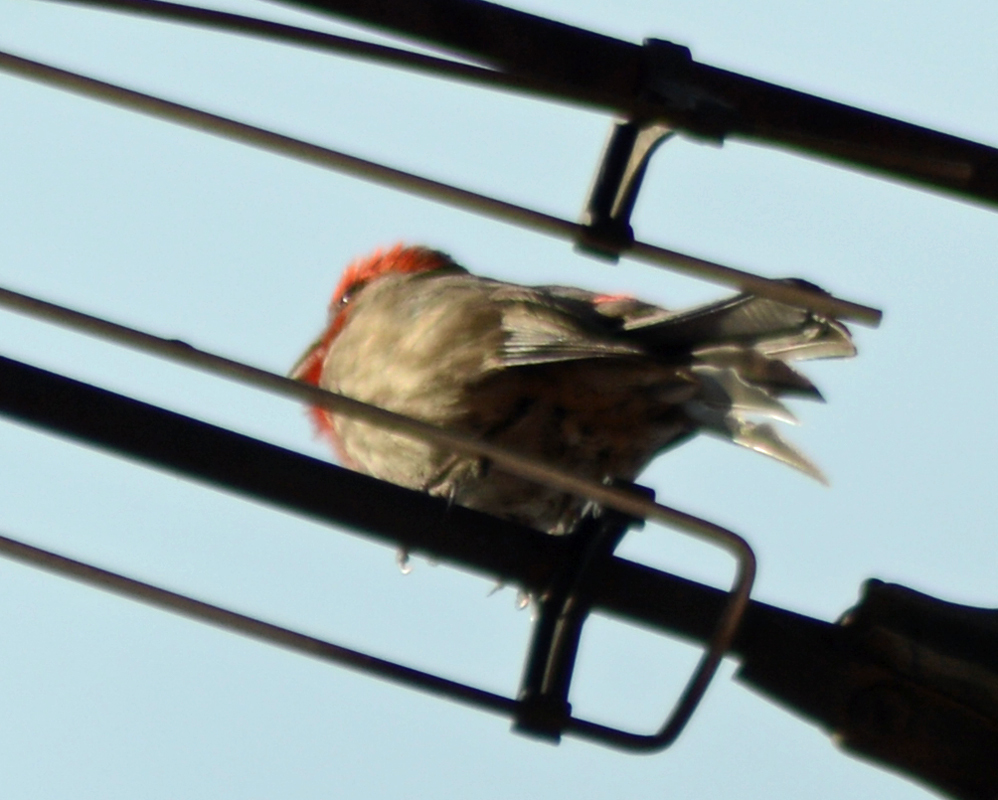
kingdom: Animalia
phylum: Chordata
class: Aves
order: Passeriformes
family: Fringillidae
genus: Haemorhous
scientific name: Haemorhous mexicanus
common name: House finch
